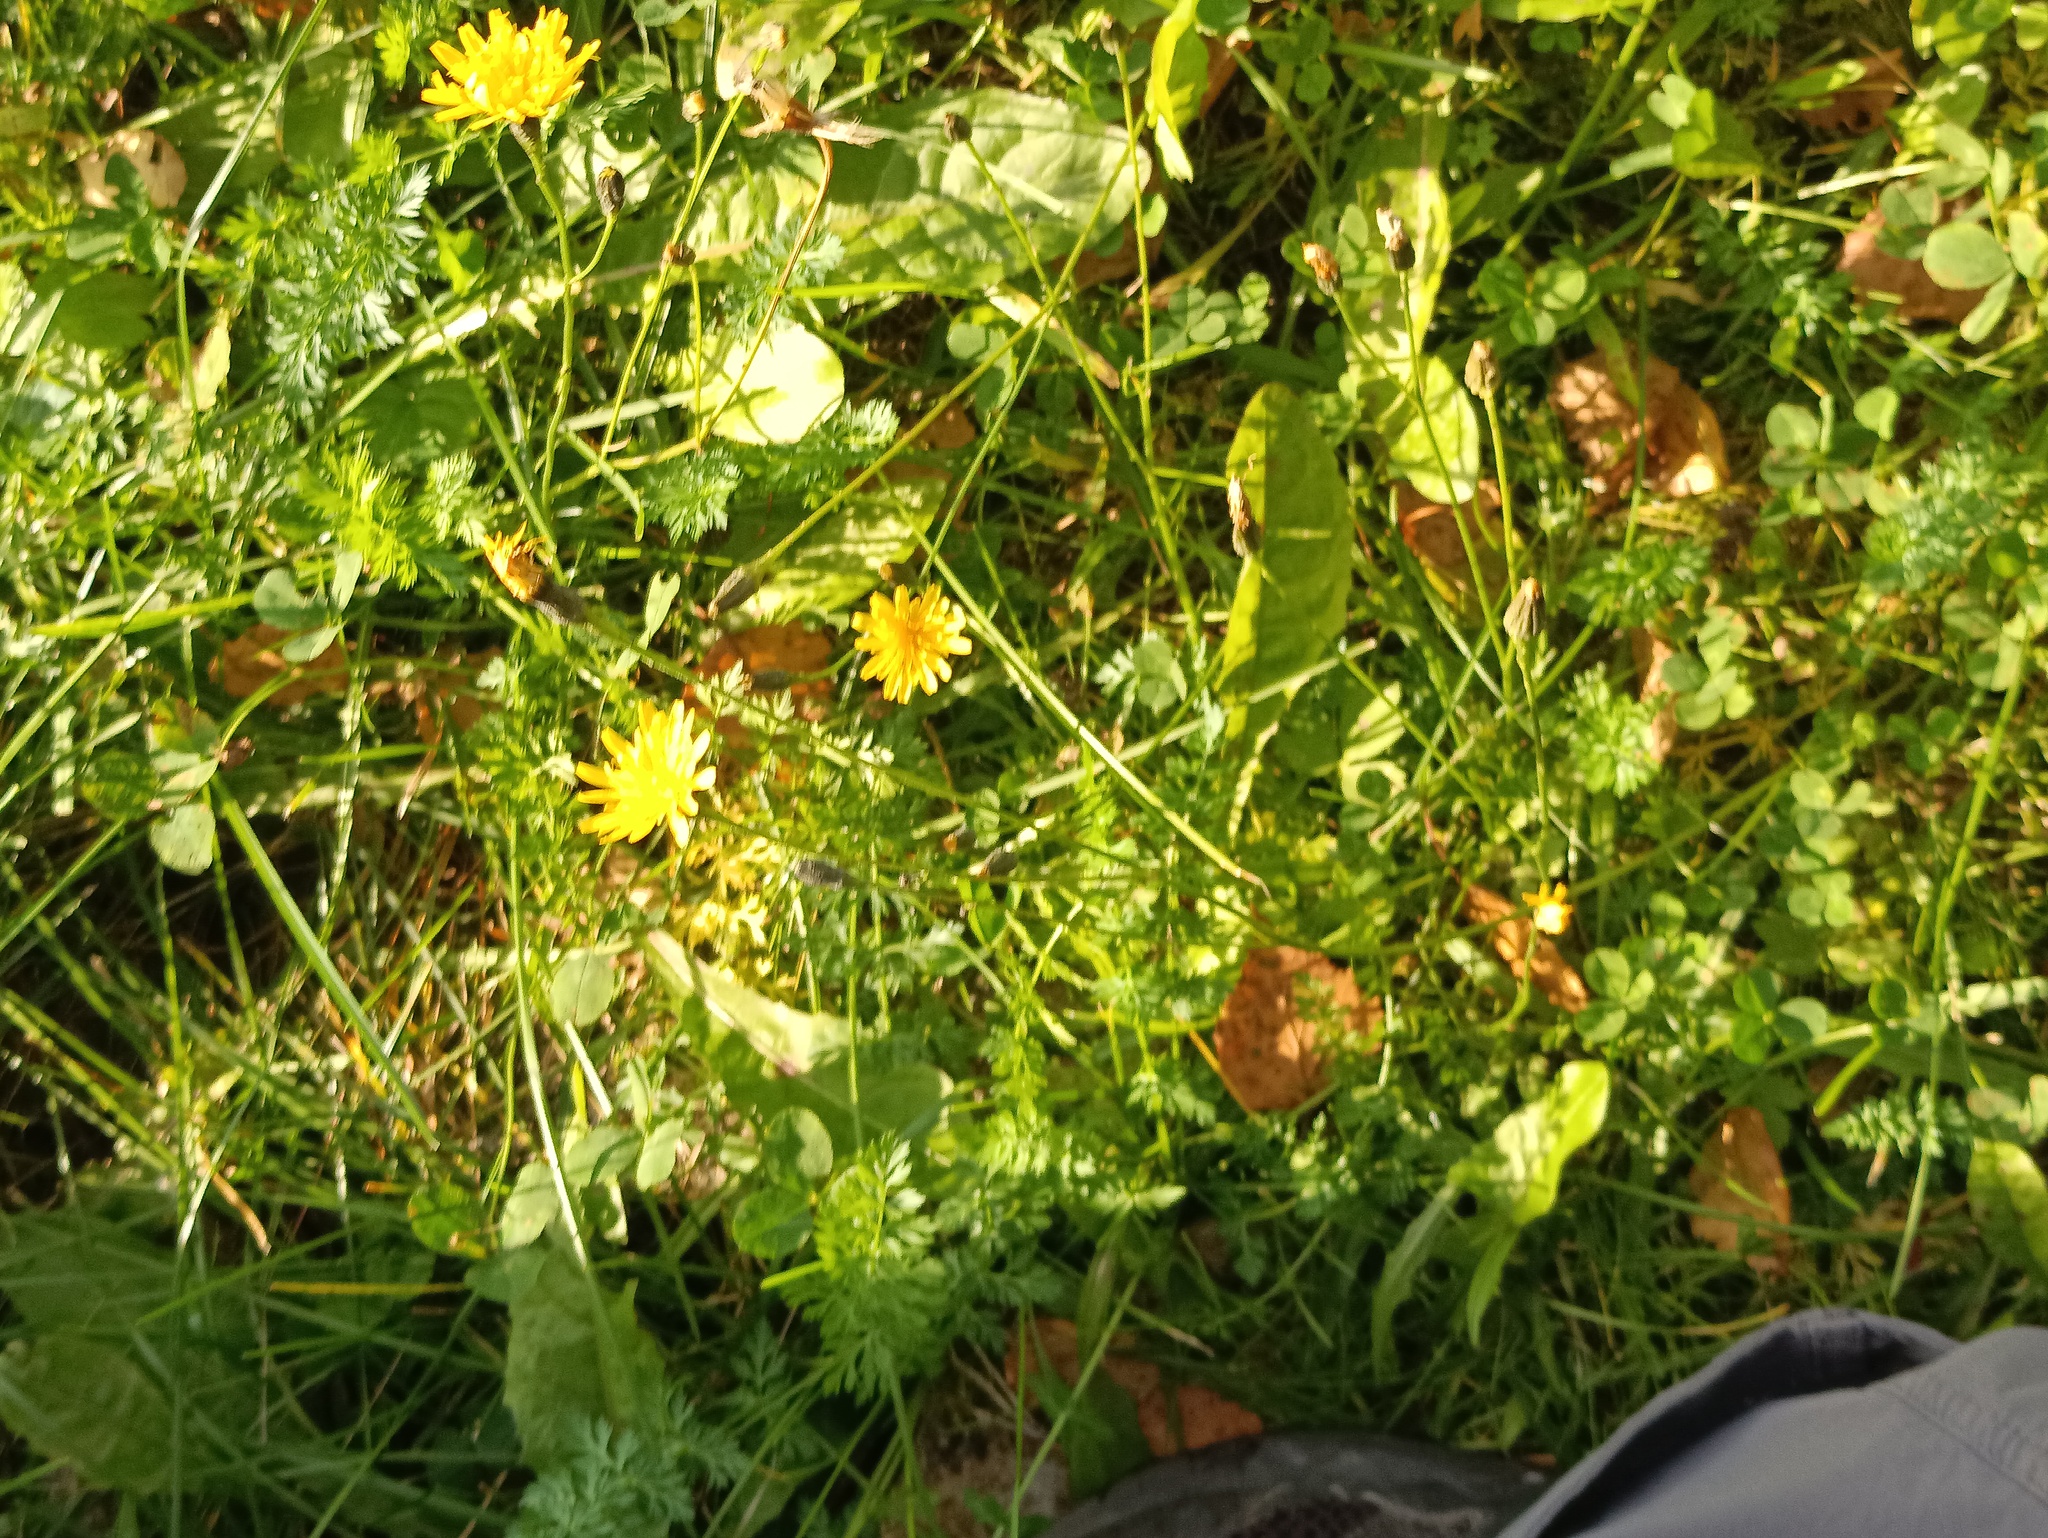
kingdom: Plantae
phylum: Tracheophyta
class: Magnoliopsida
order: Asterales
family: Asteraceae
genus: Scorzoneroides
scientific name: Scorzoneroides autumnalis
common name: Autumn hawkbit
